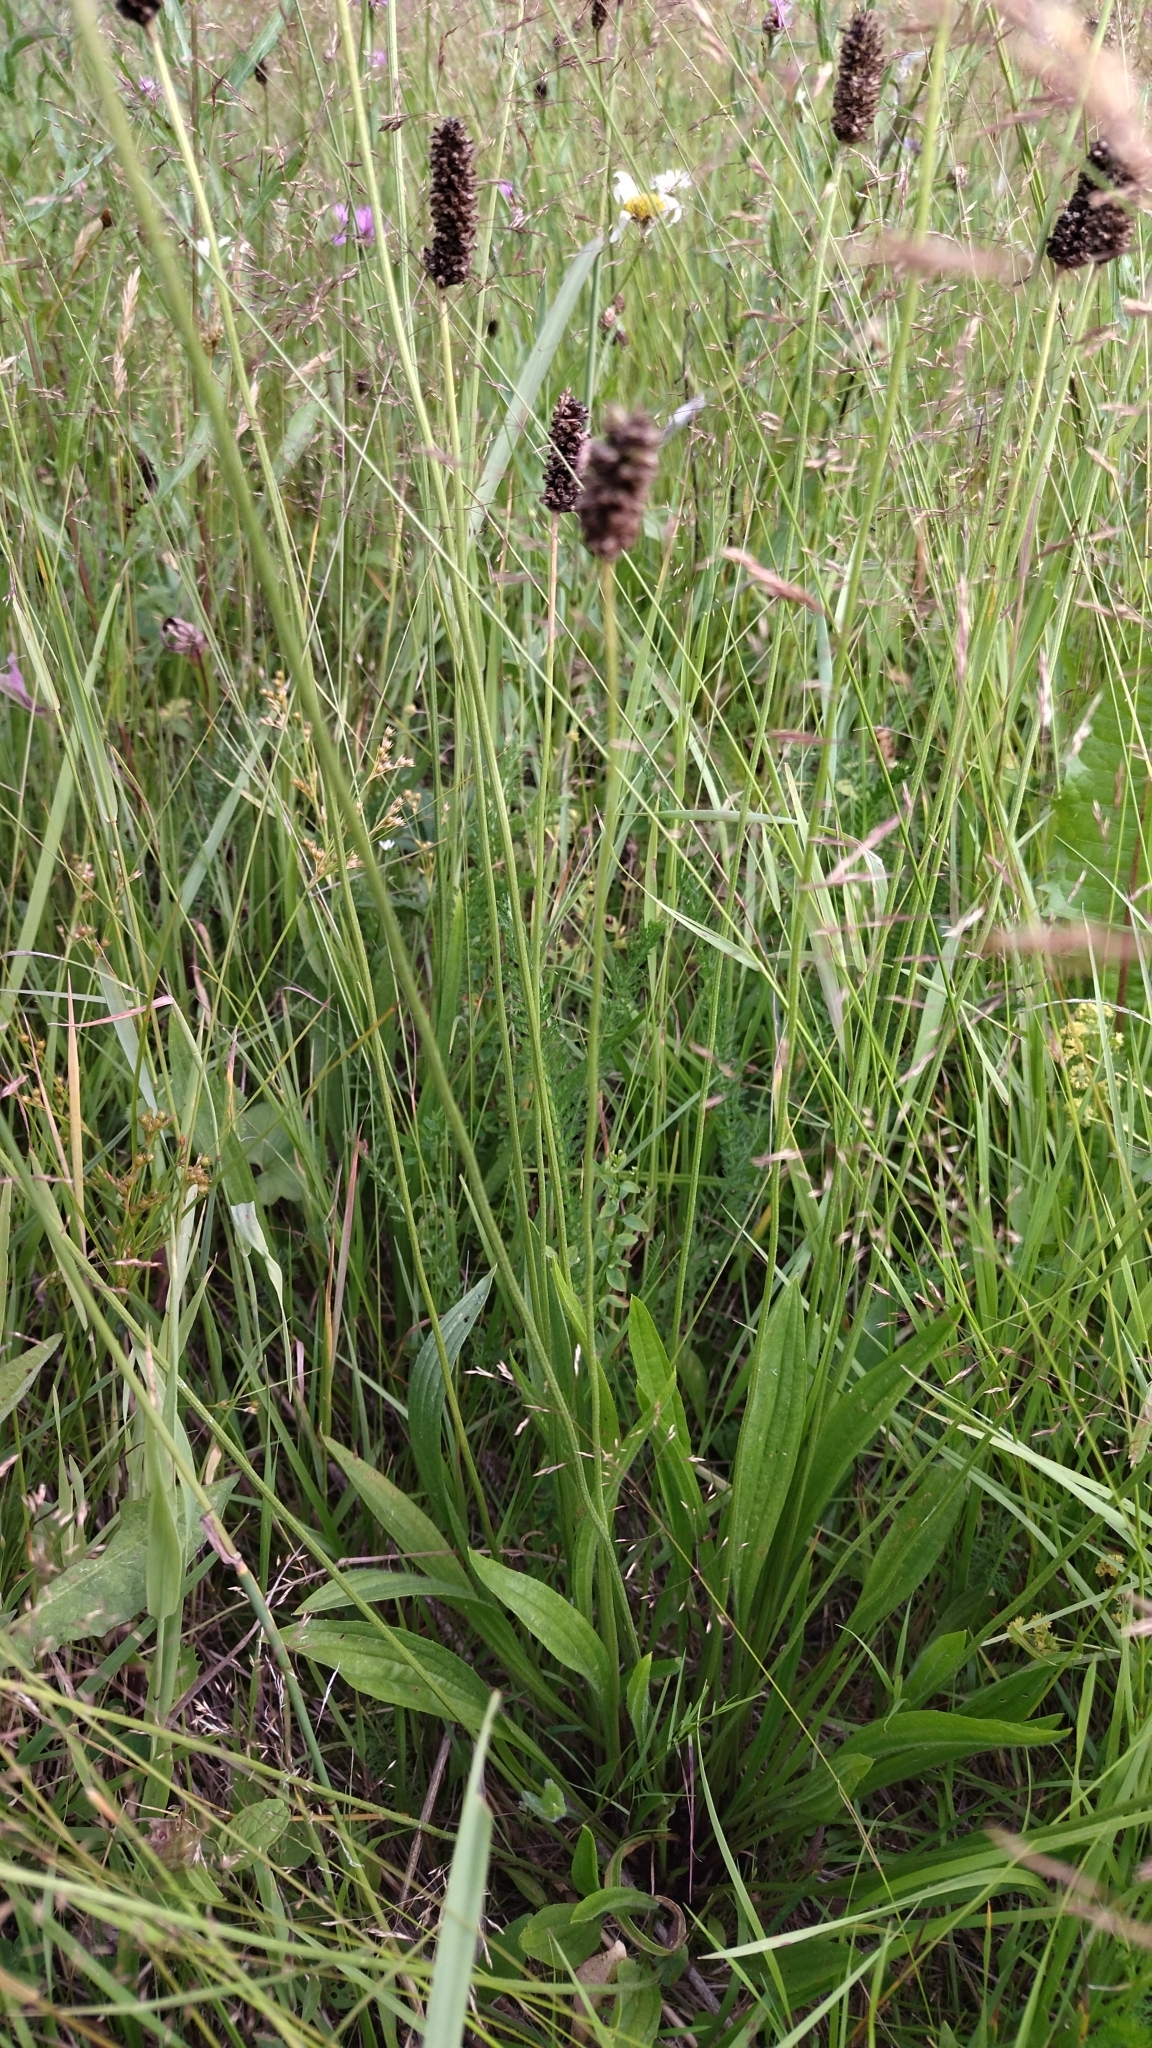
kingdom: Plantae
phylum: Tracheophyta
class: Magnoliopsida
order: Lamiales
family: Plantaginaceae
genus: Plantago
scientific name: Plantago lanceolata
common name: Ribwort plantain
